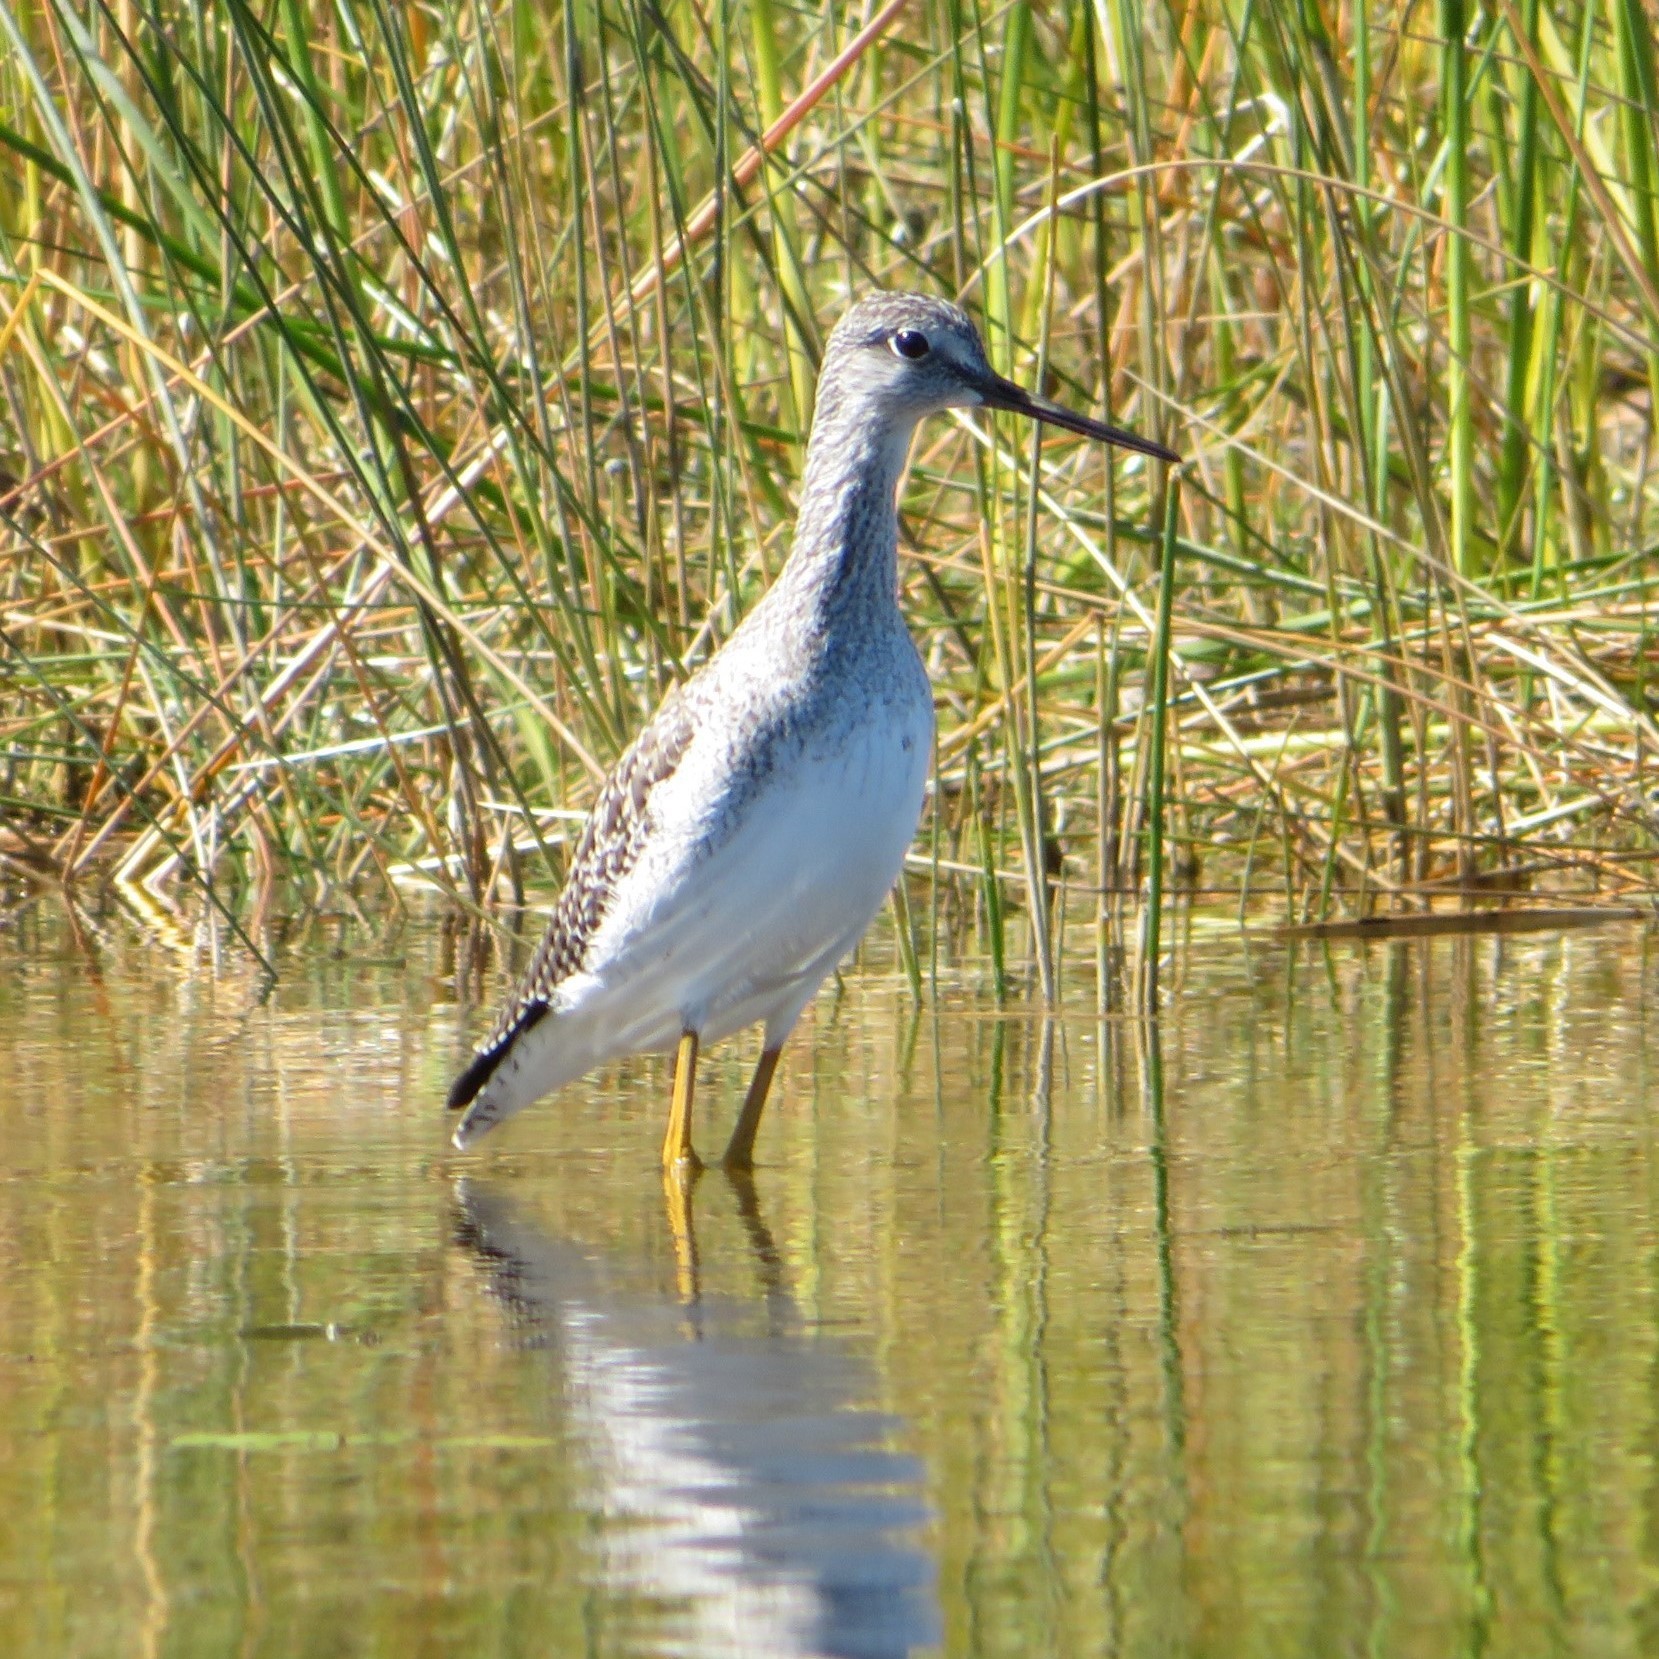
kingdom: Animalia
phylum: Chordata
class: Aves
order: Charadriiformes
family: Scolopacidae
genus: Tringa
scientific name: Tringa melanoleuca
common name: Greater yellowlegs
